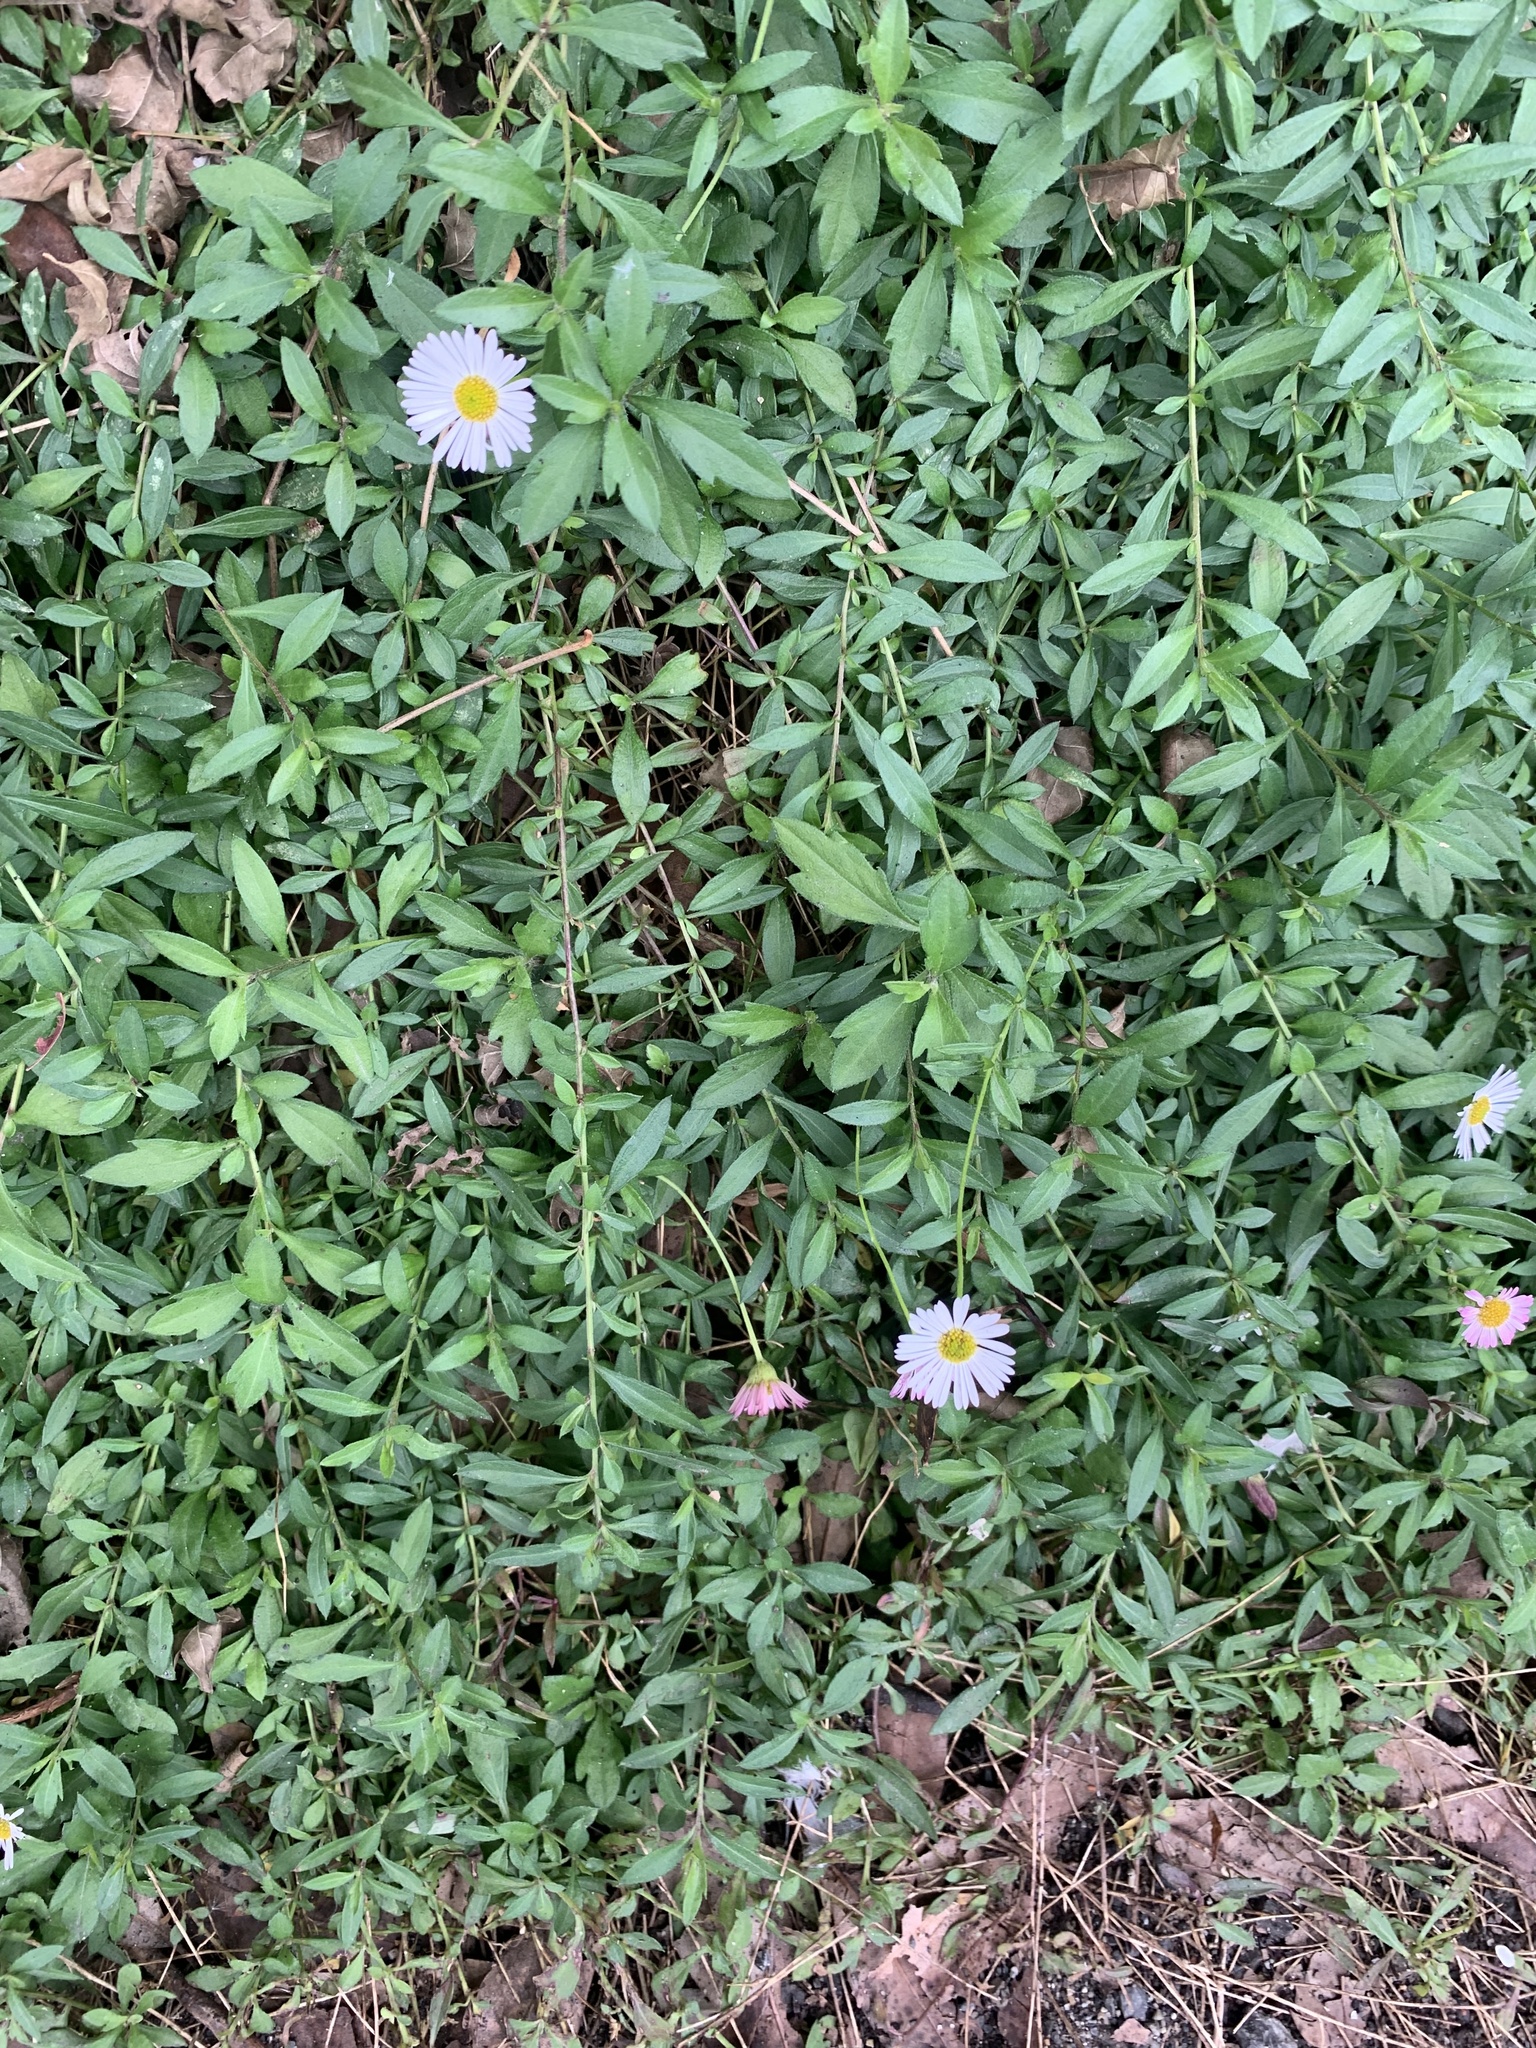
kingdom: Plantae
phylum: Tracheophyta
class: Magnoliopsida
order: Asterales
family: Asteraceae
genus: Erigeron
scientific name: Erigeron karvinskianus
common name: Mexican fleabane
